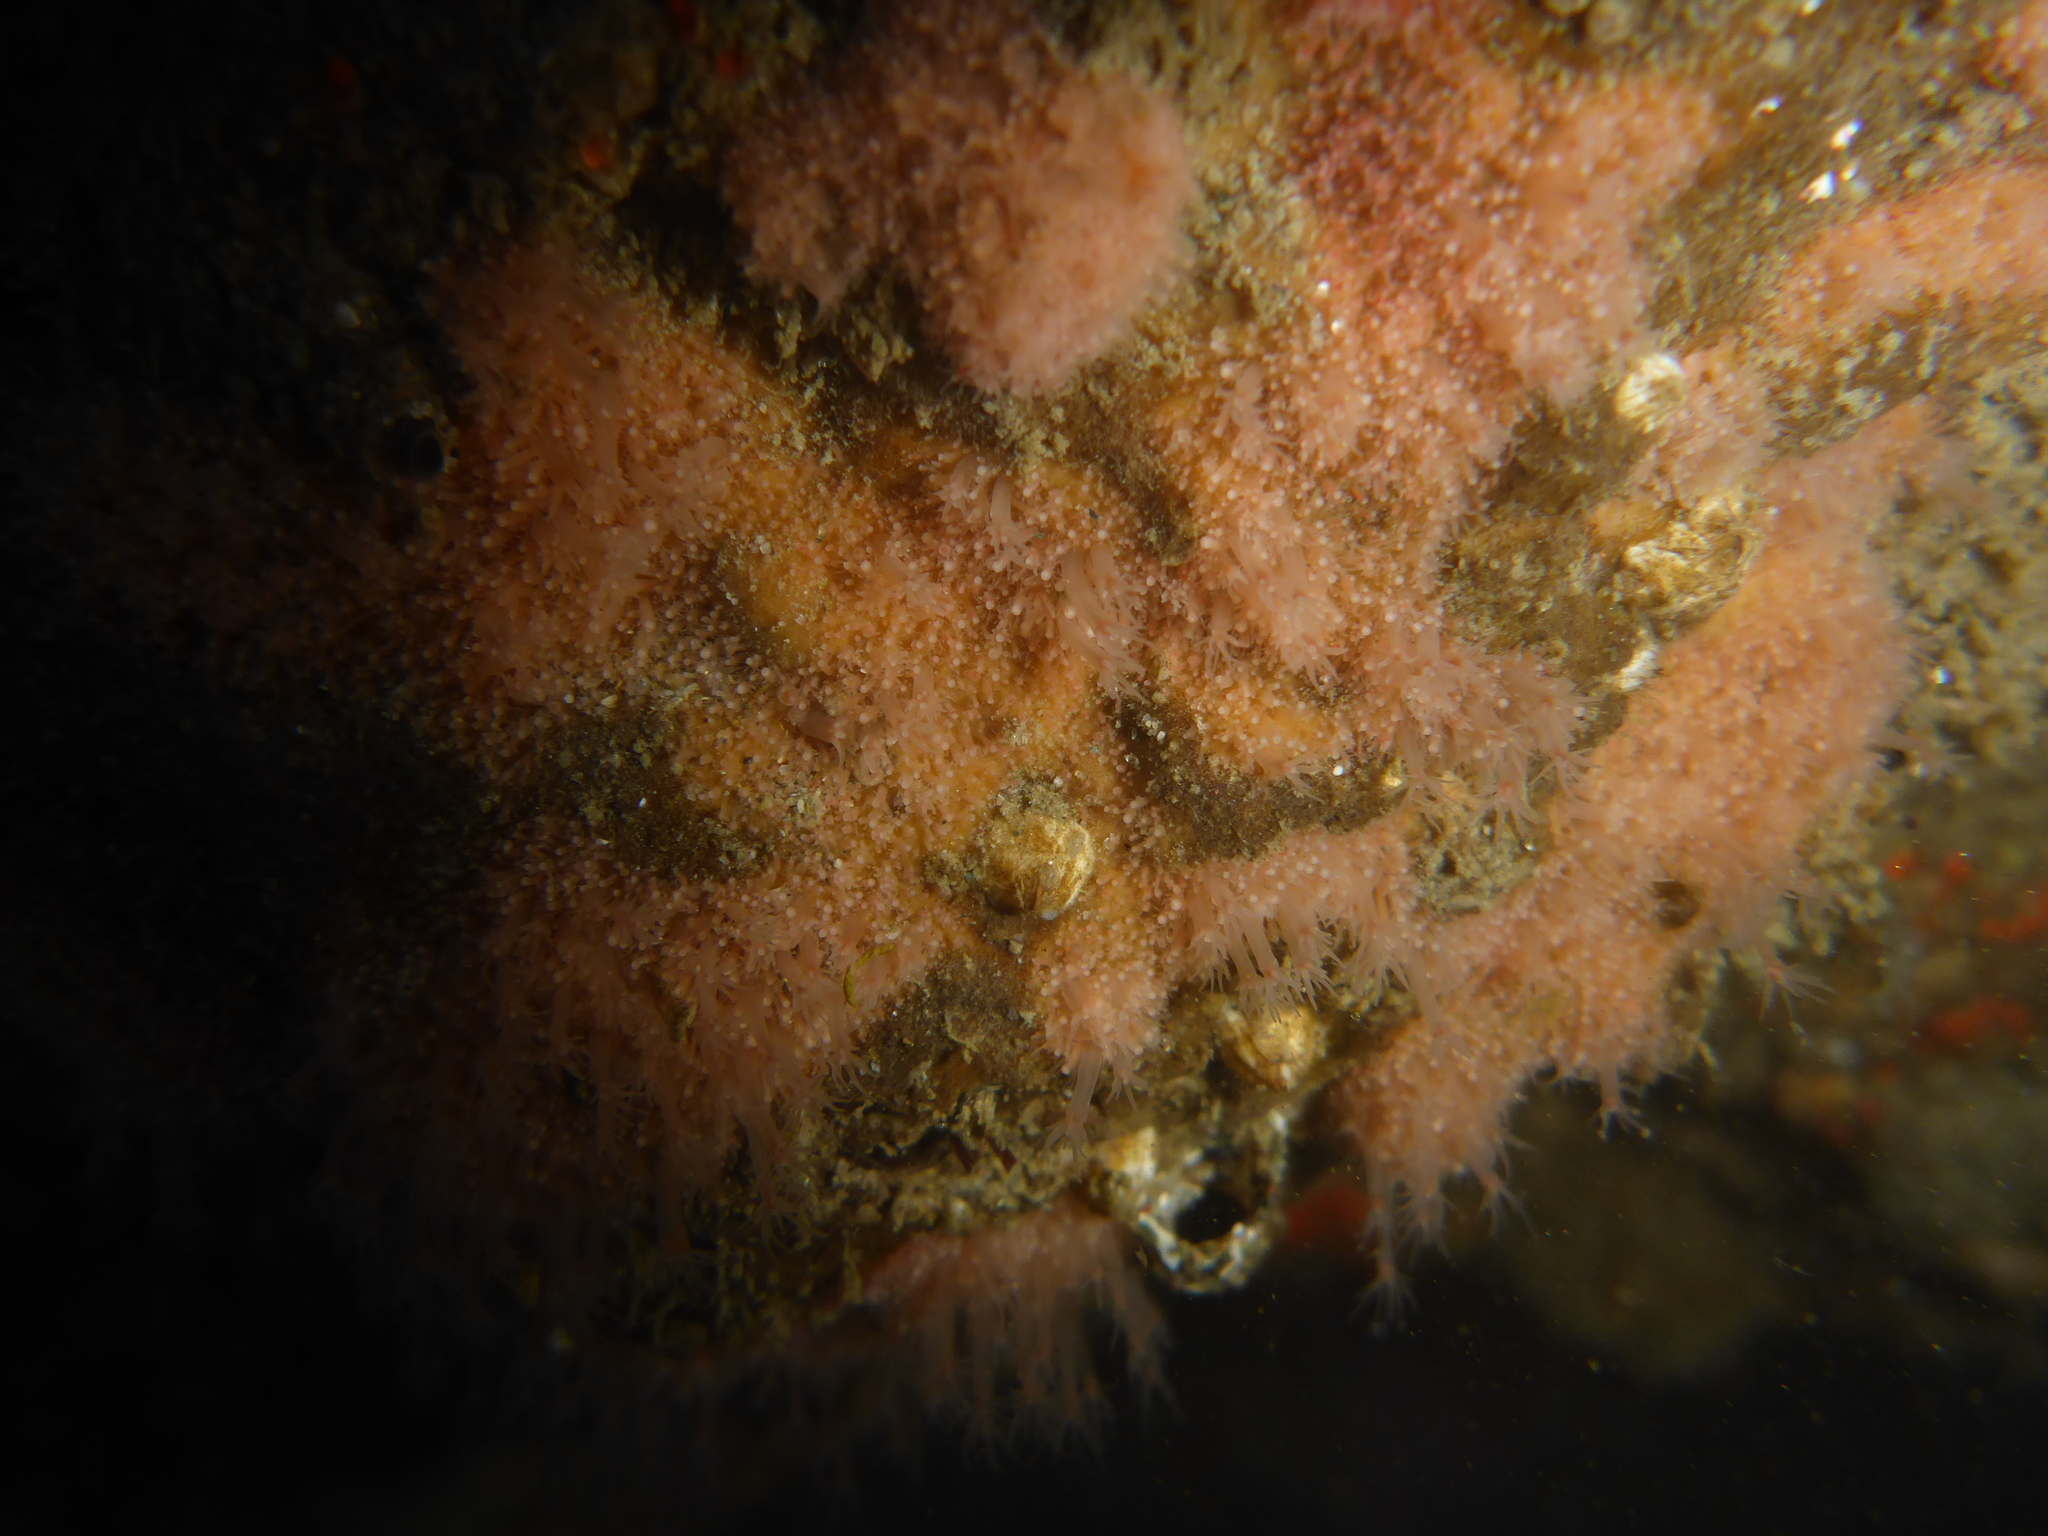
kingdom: Animalia
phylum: Cnidaria
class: Hydrozoa
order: Anthoathecata
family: Hydractiniidae
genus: Schuchertinia
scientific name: Schuchertinia milleri
